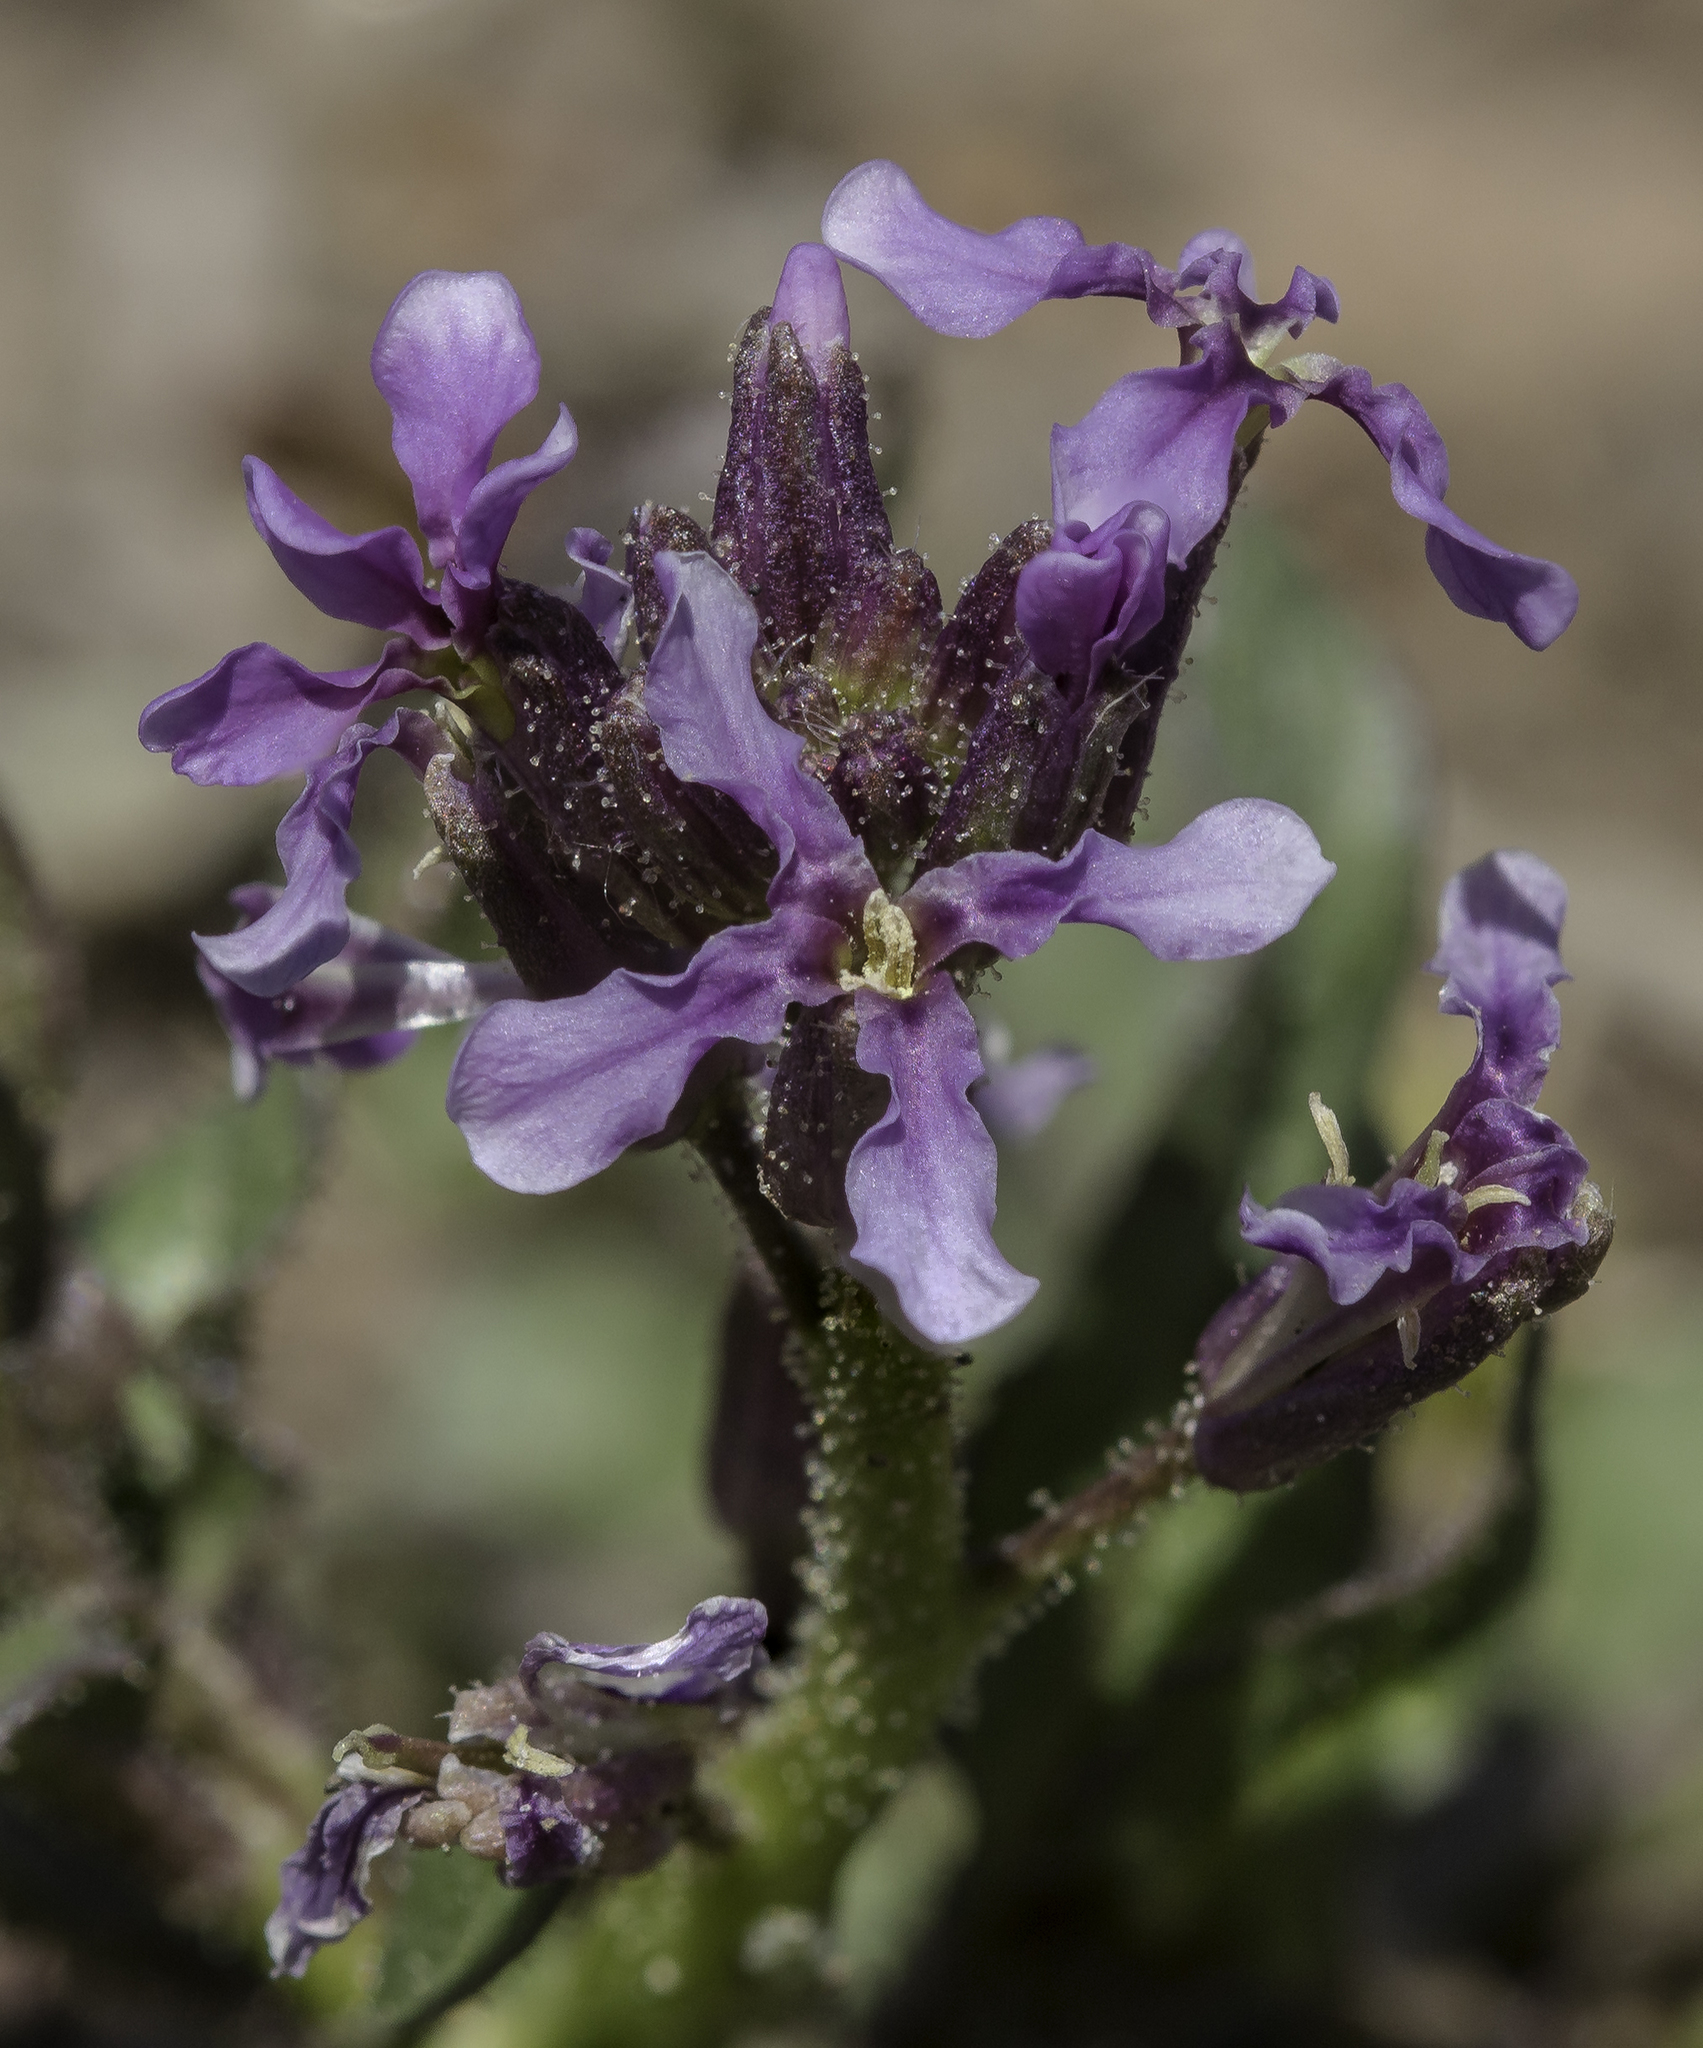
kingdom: Plantae
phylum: Tracheophyta
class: Magnoliopsida
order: Brassicales
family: Brassicaceae
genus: Chorispora
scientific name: Chorispora tenella
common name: Crossflower
